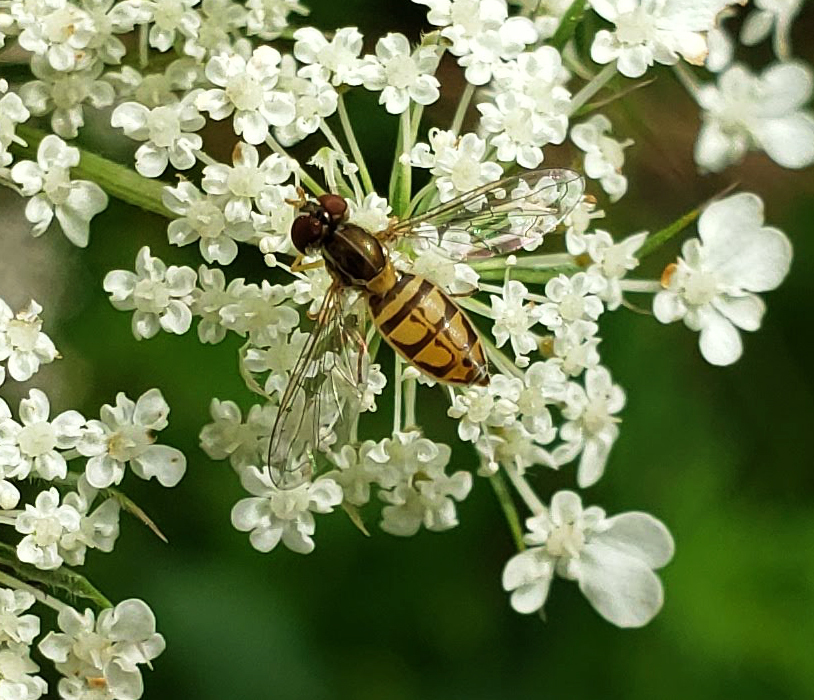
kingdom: Animalia
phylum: Arthropoda
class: Insecta
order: Diptera
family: Syrphidae
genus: Toxomerus
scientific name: Toxomerus marginatus
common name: Syrphid fly
